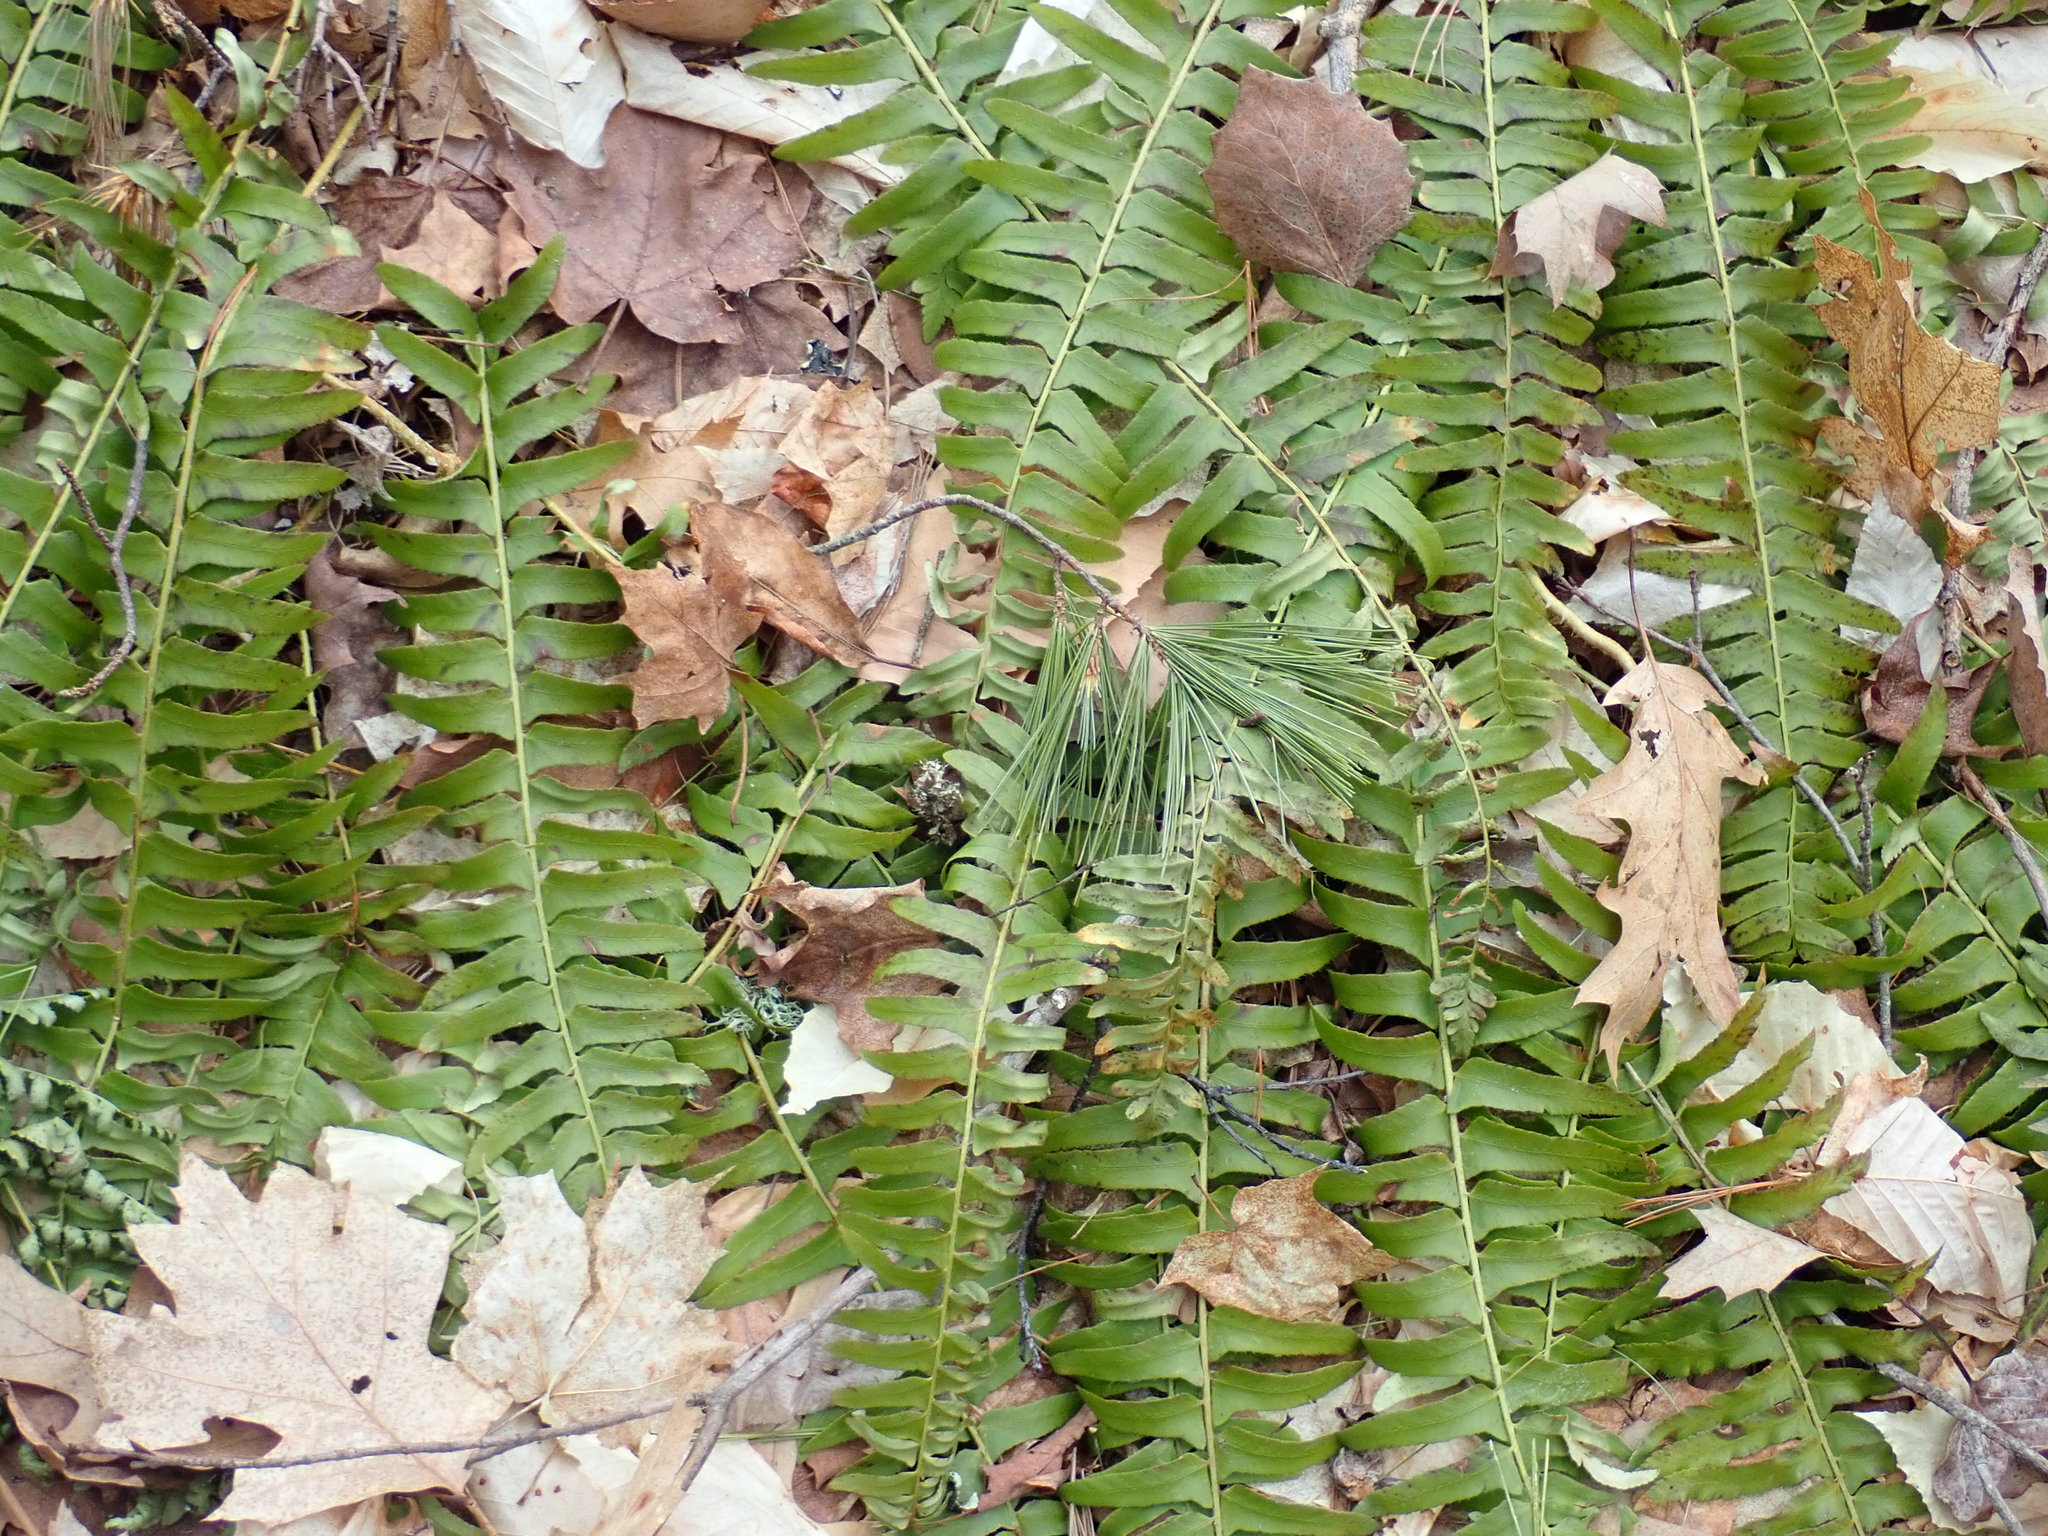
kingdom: Plantae
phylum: Tracheophyta
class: Polypodiopsida
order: Polypodiales
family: Dryopteridaceae
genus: Polystichum
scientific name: Polystichum acrostichoides
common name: Christmas fern
